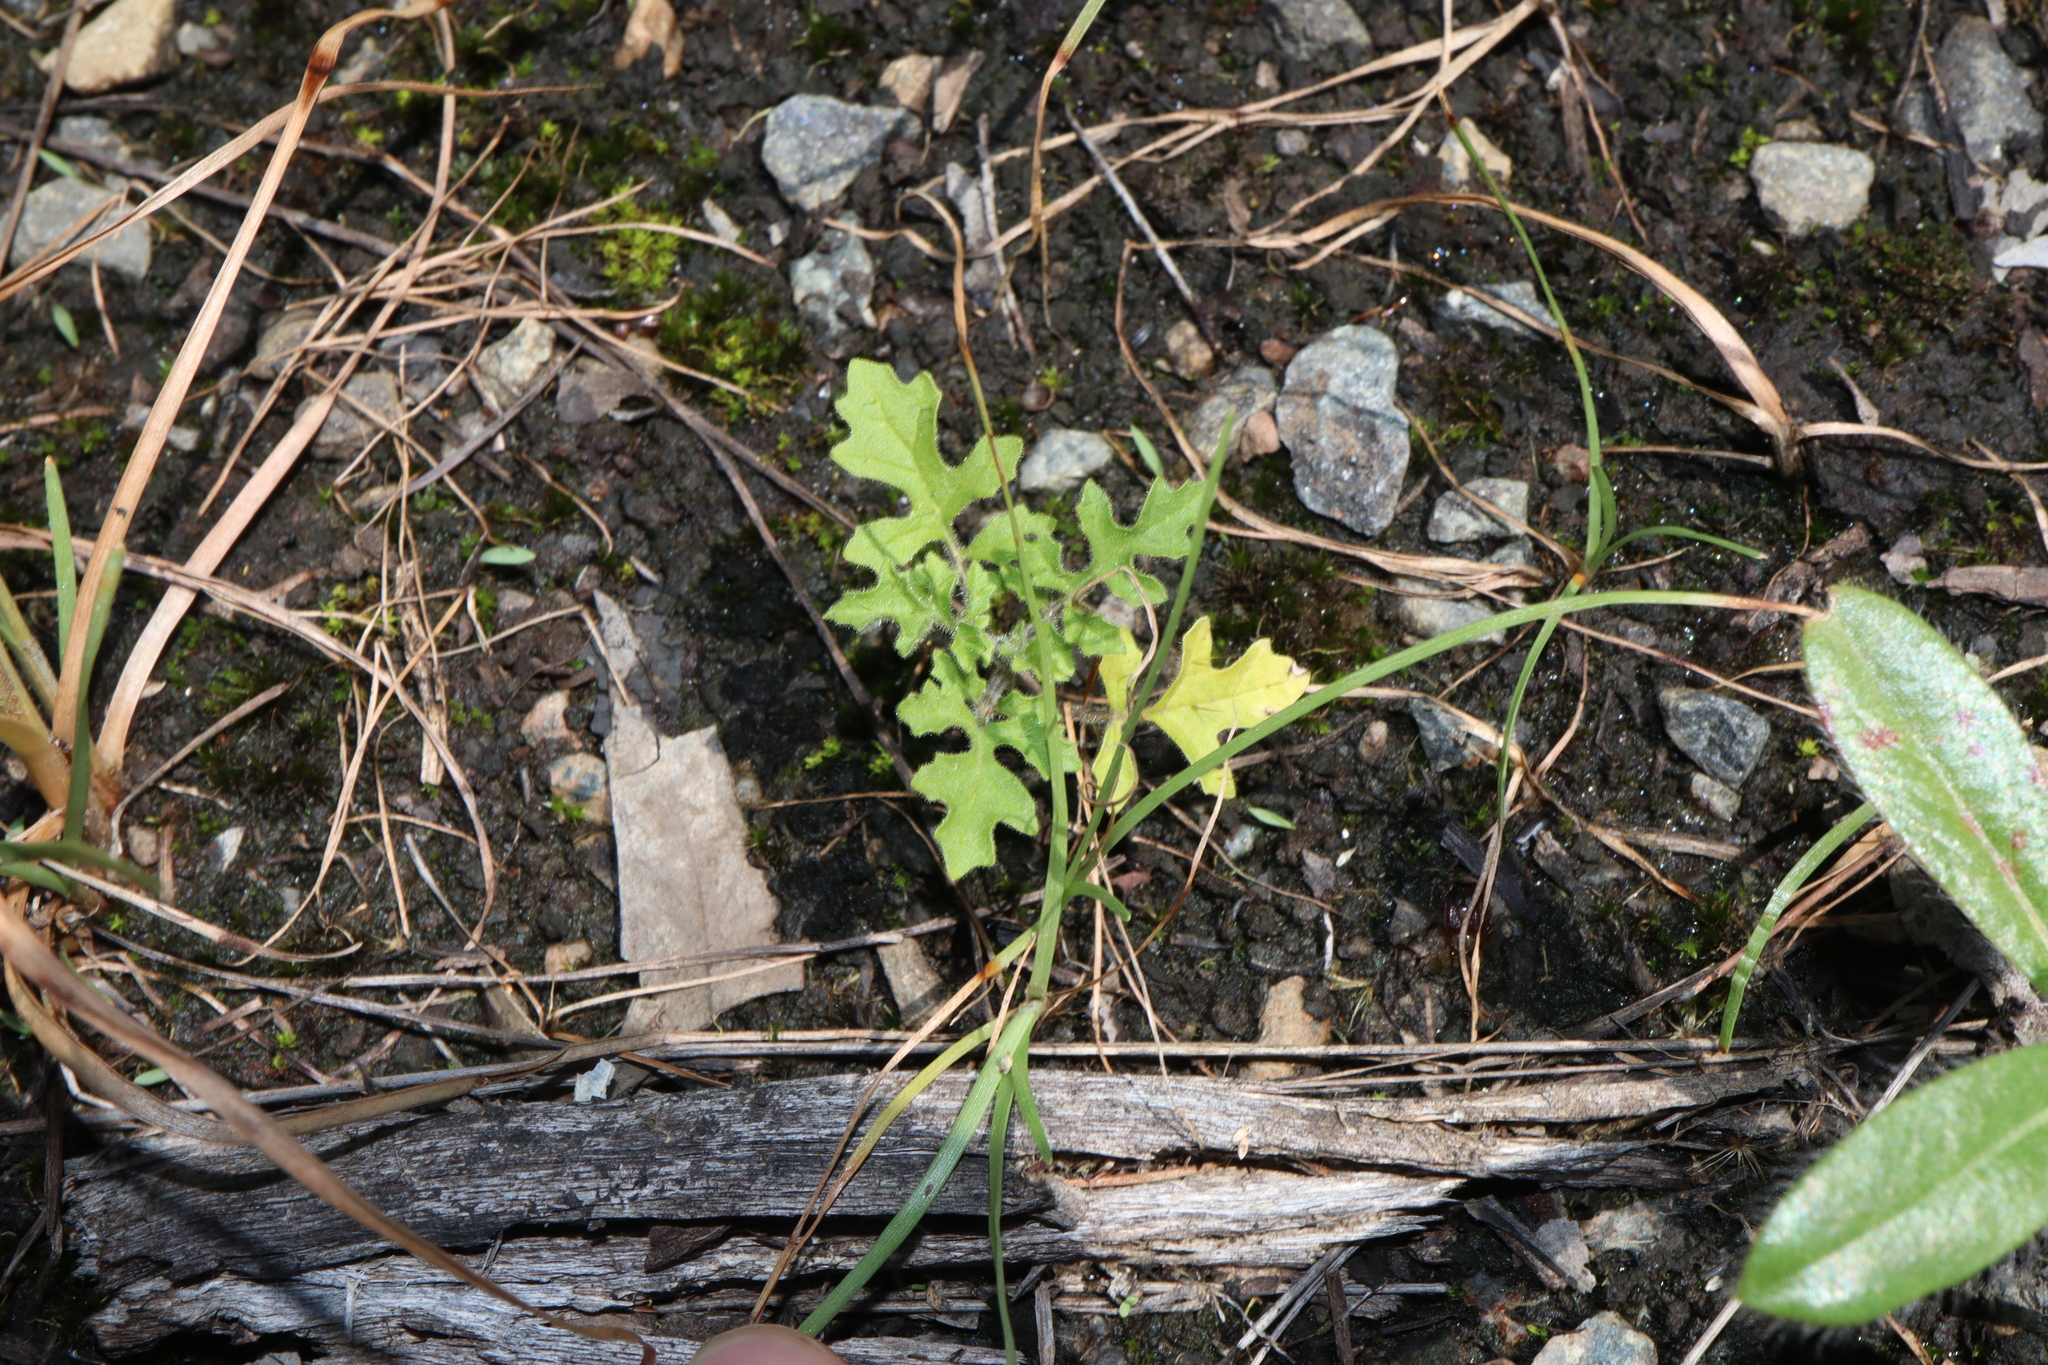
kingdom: Plantae
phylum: Tracheophyta
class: Magnoliopsida
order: Solanales
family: Solanaceae
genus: Solanum
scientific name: Solanum sisymbriifolium
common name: Red buffalo-bur
